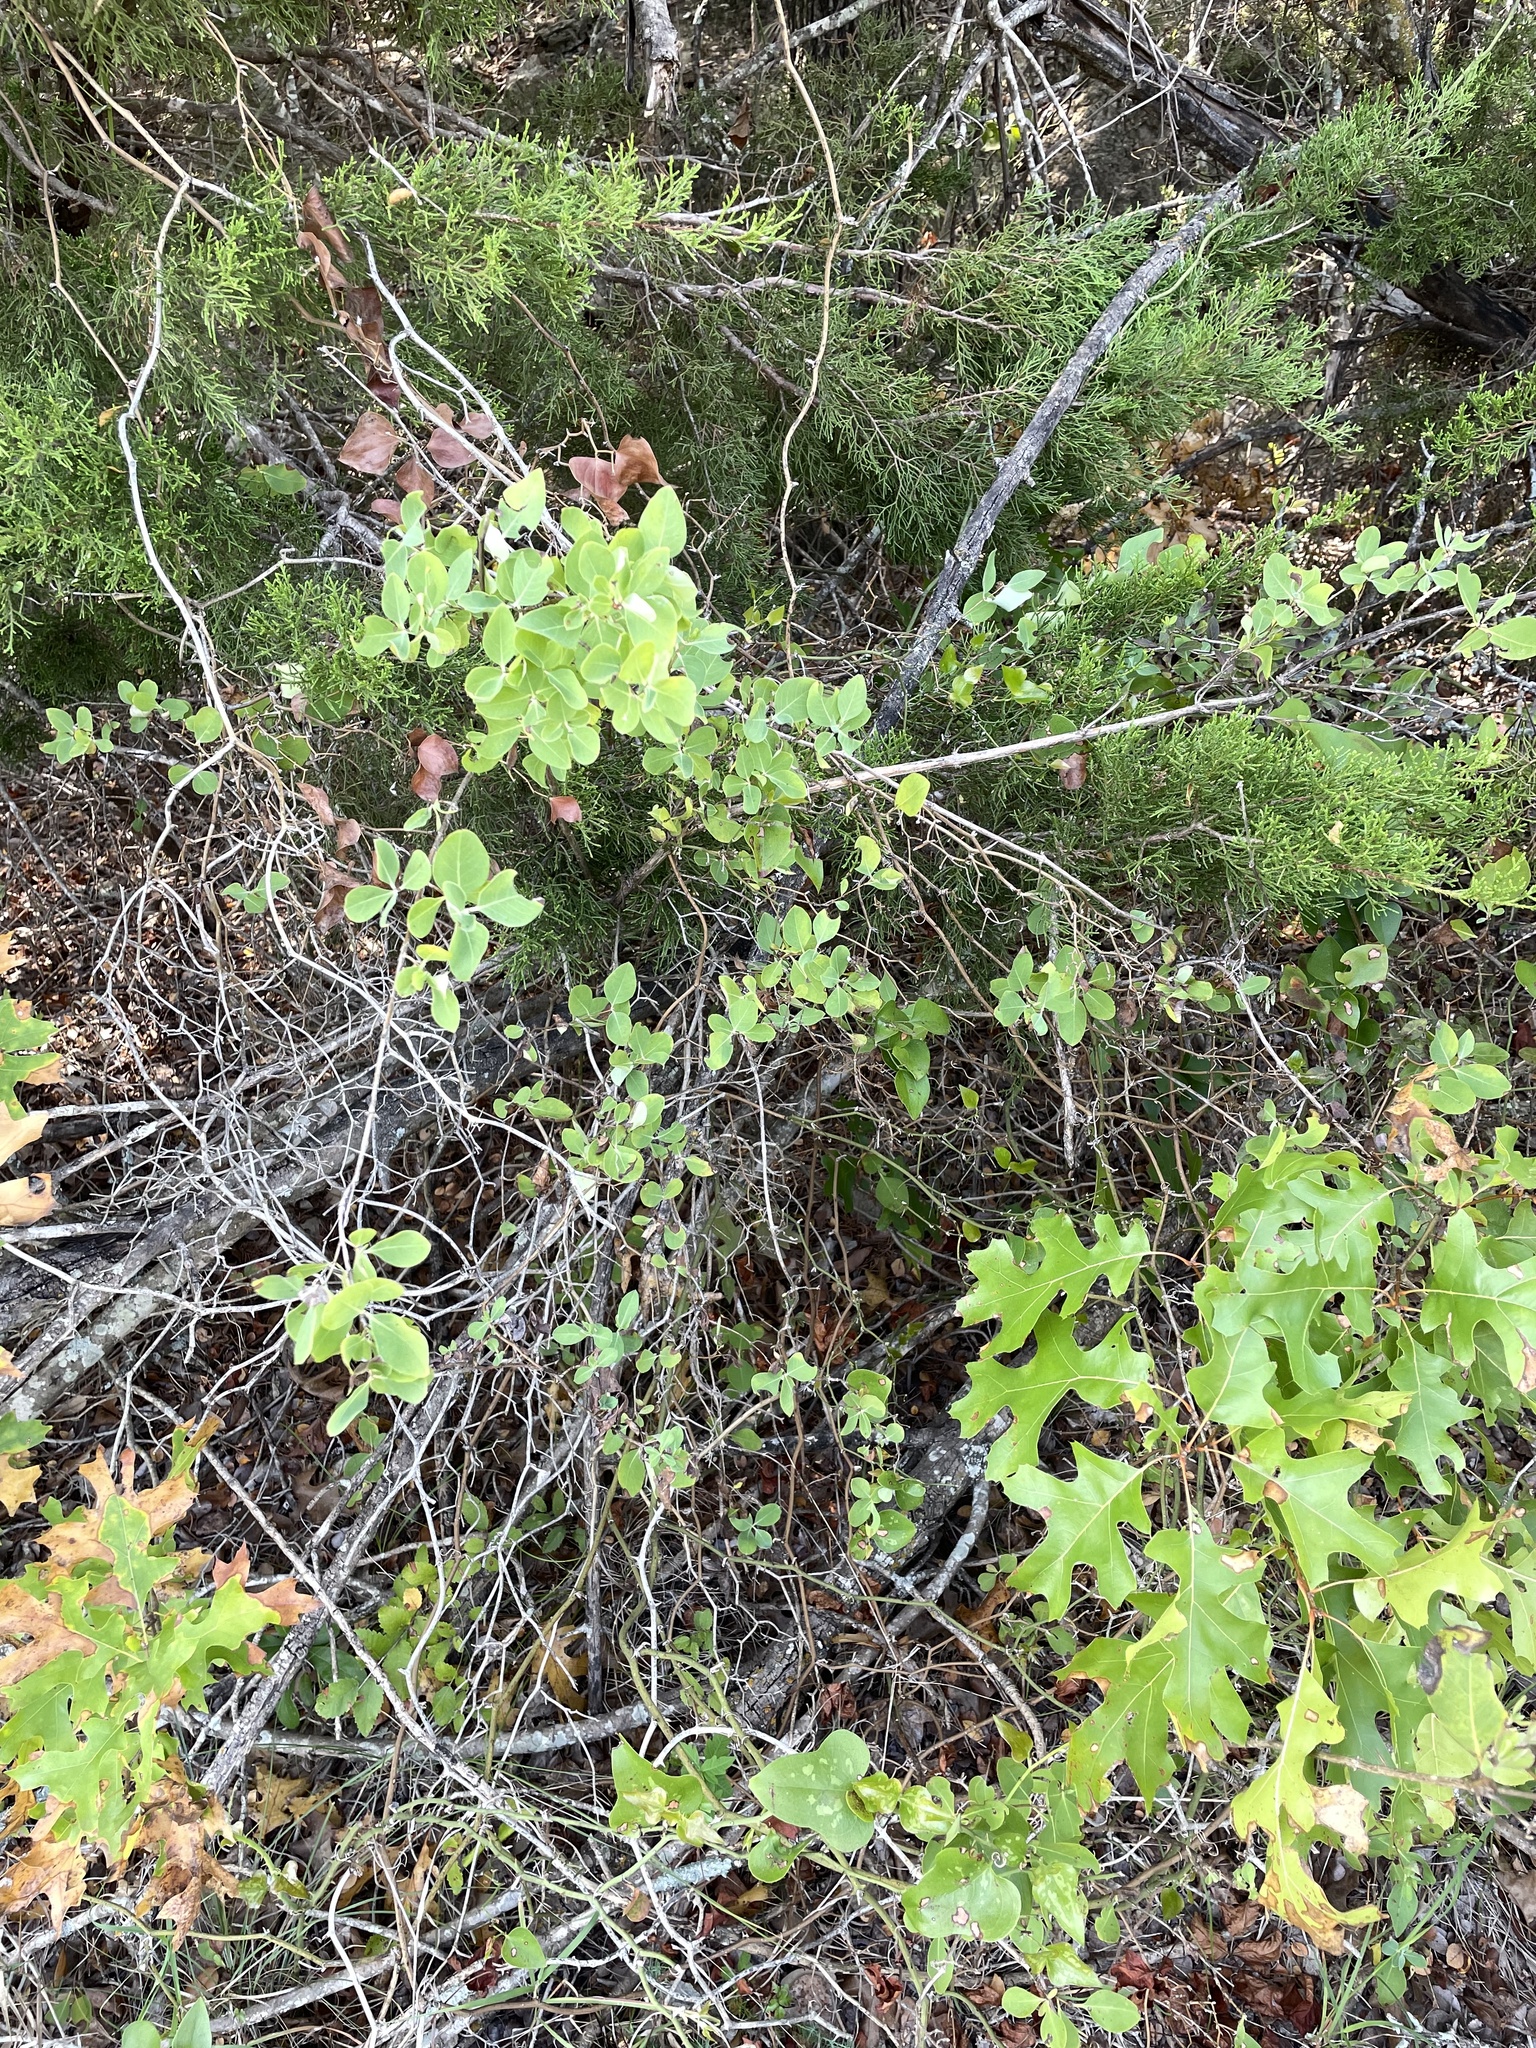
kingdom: Plantae
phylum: Tracheophyta
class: Magnoliopsida
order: Dipsacales
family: Caprifoliaceae
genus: Lonicera
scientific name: Lonicera albiflora
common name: White honeysuckle
